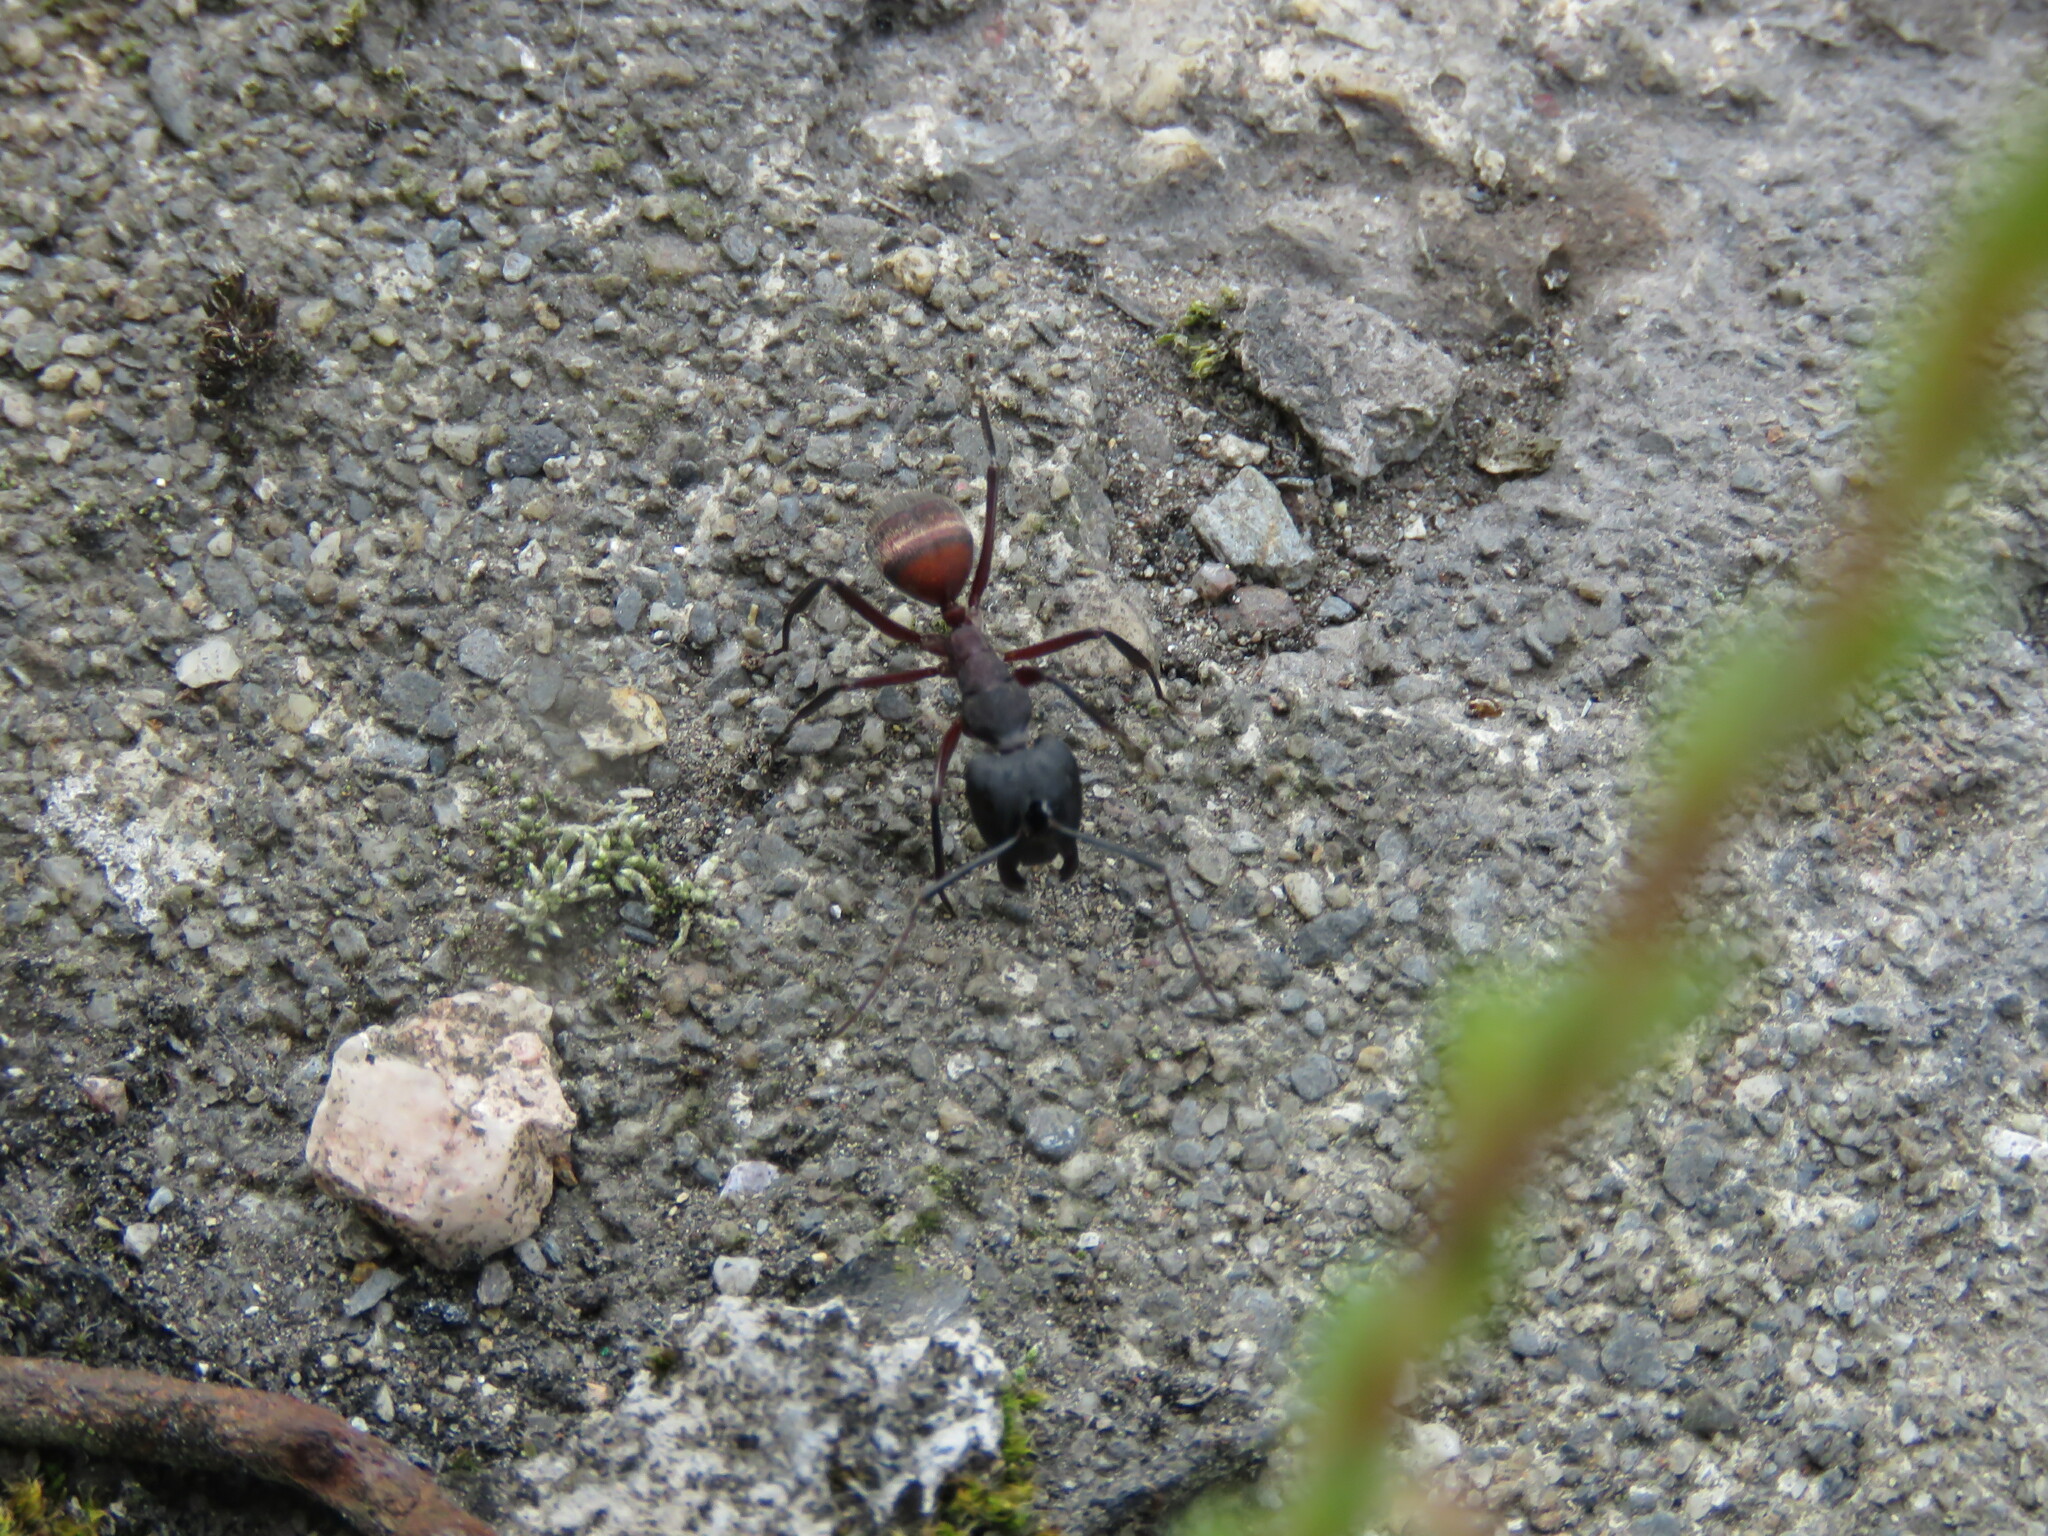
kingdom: Animalia
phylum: Arthropoda
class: Insecta
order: Hymenoptera
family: Formicidae
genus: Camponotus
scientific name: Camponotus cruentatus
